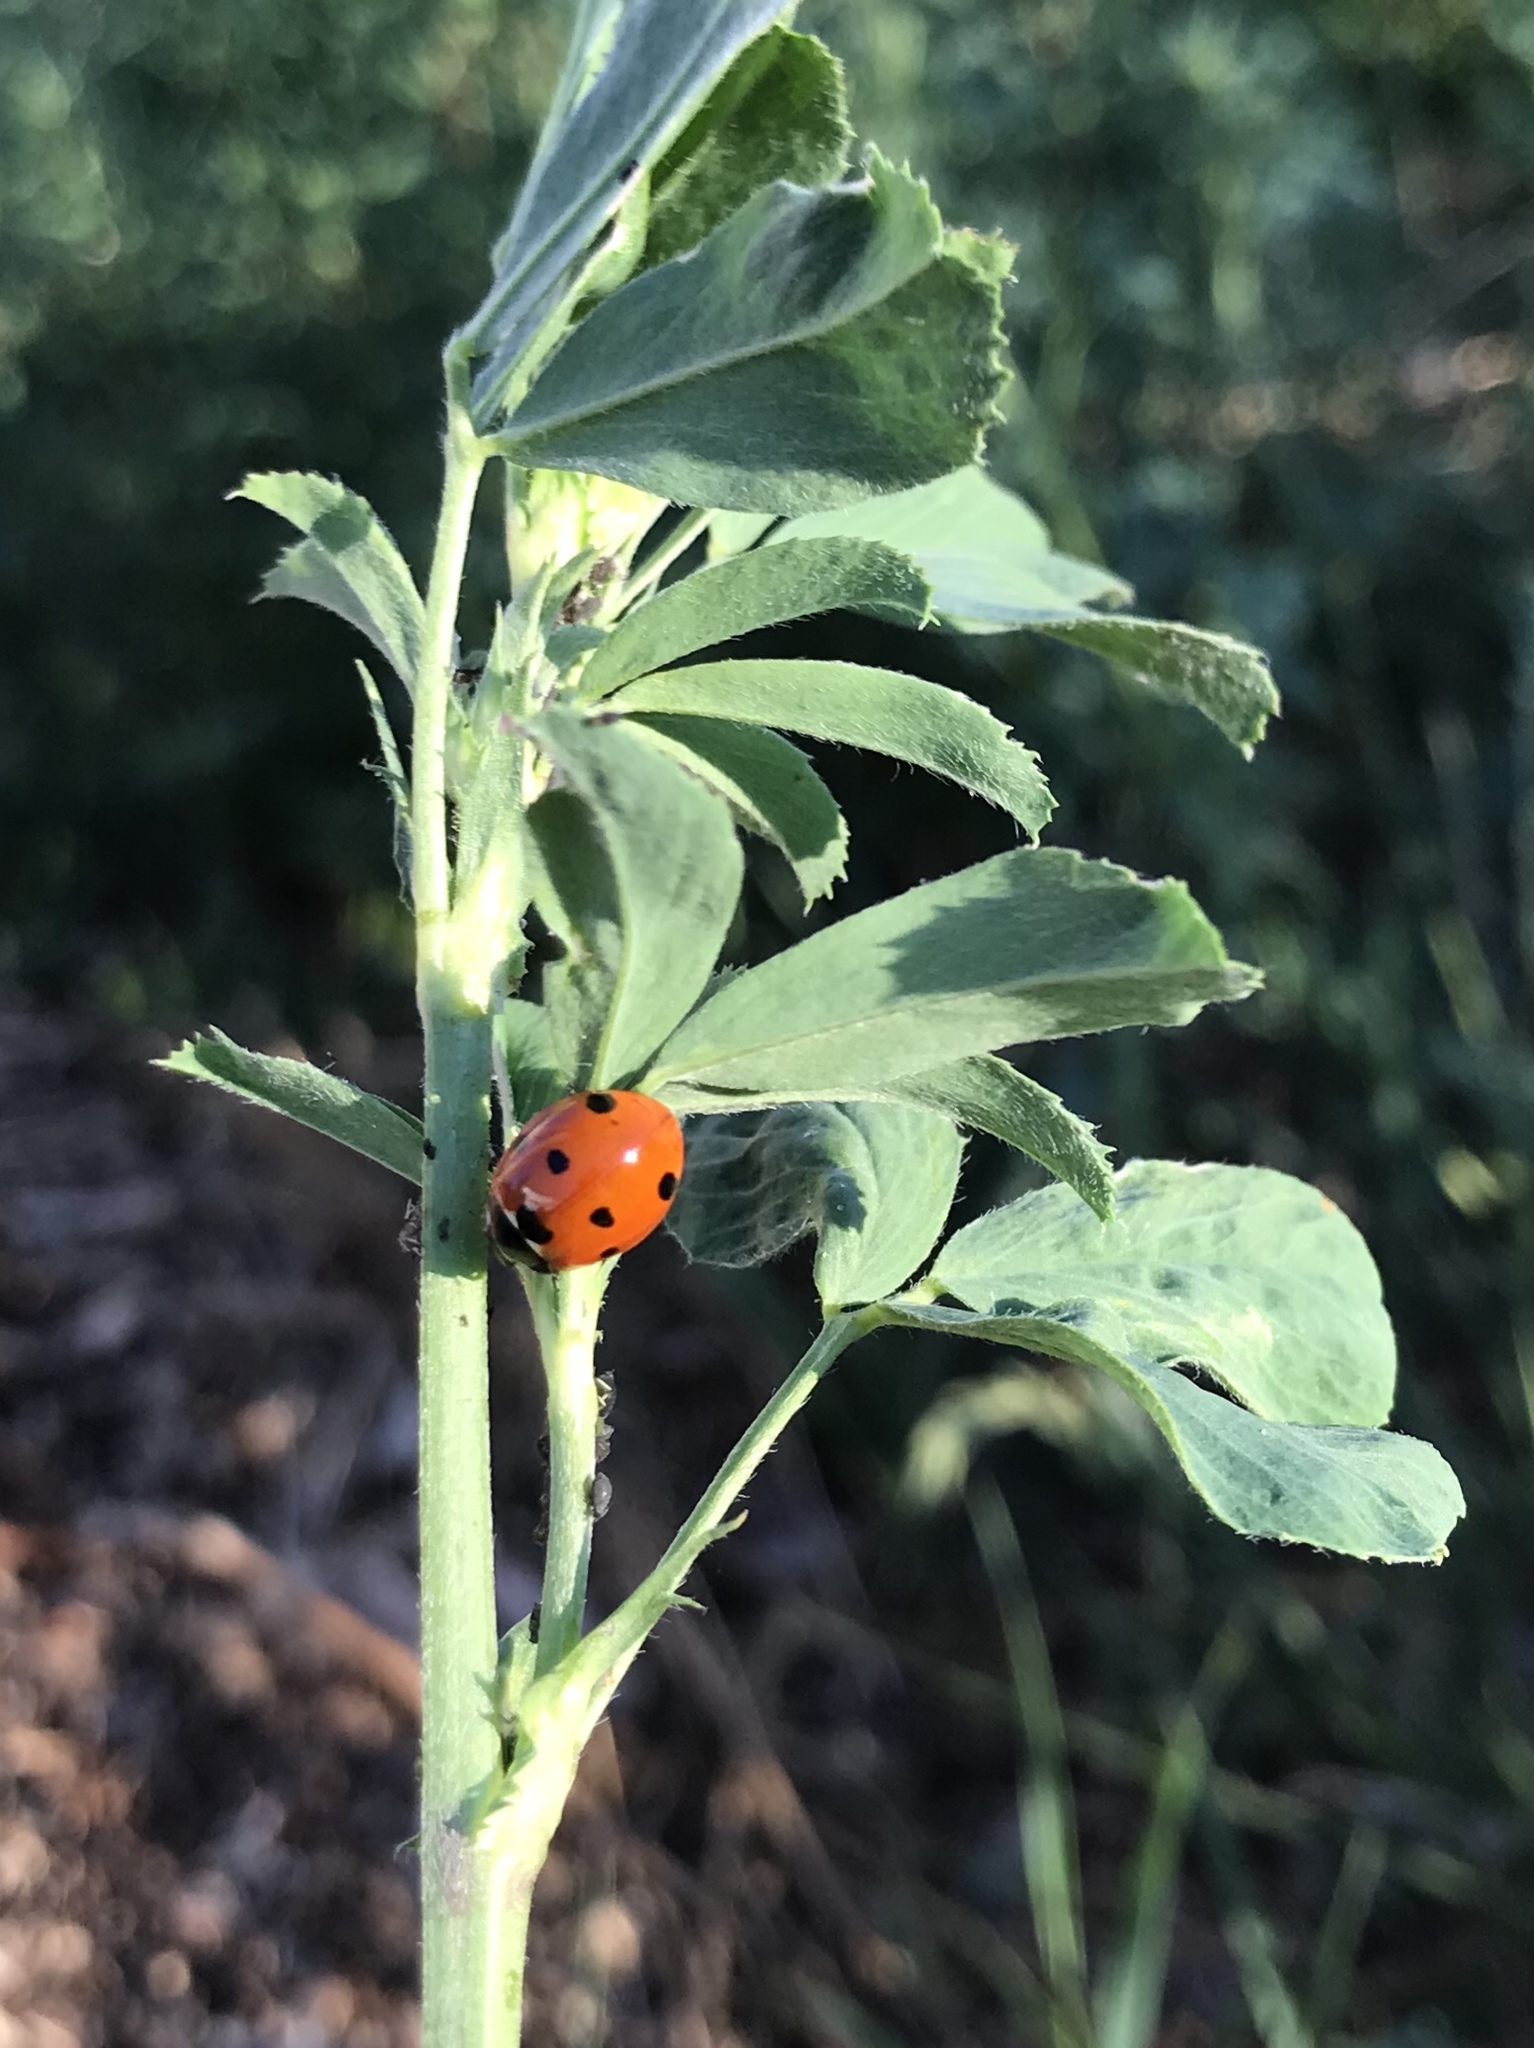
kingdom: Animalia
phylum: Arthropoda
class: Insecta
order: Coleoptera
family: Coccinellidae
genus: Coccinella
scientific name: Coccinella septempunctata
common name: Sevenspotted lady beetle
